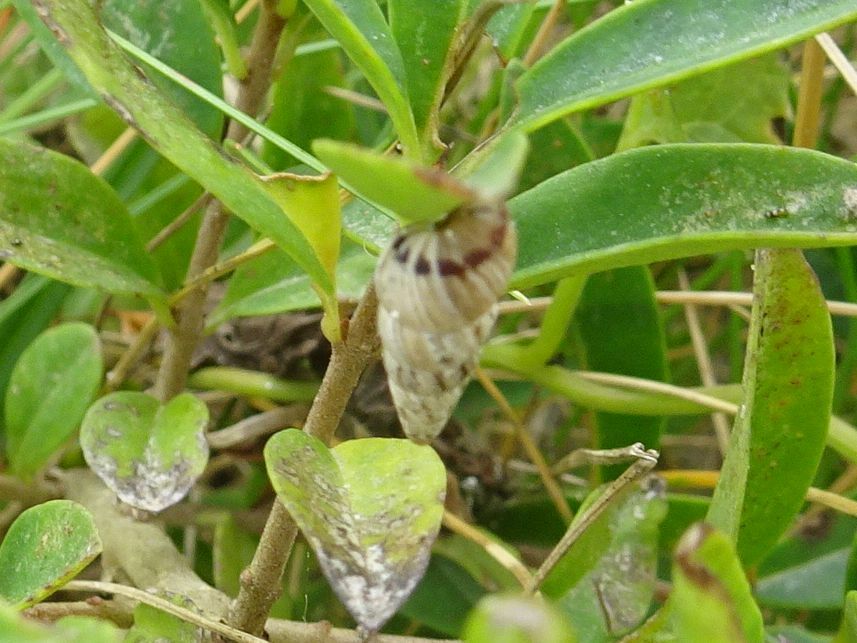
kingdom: Animalia
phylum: Mollusca
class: Gastropoda
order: Stylommatophora
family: Geomitridae
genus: Cochlicella
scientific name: Cochlicella acuta
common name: Pointed snail
